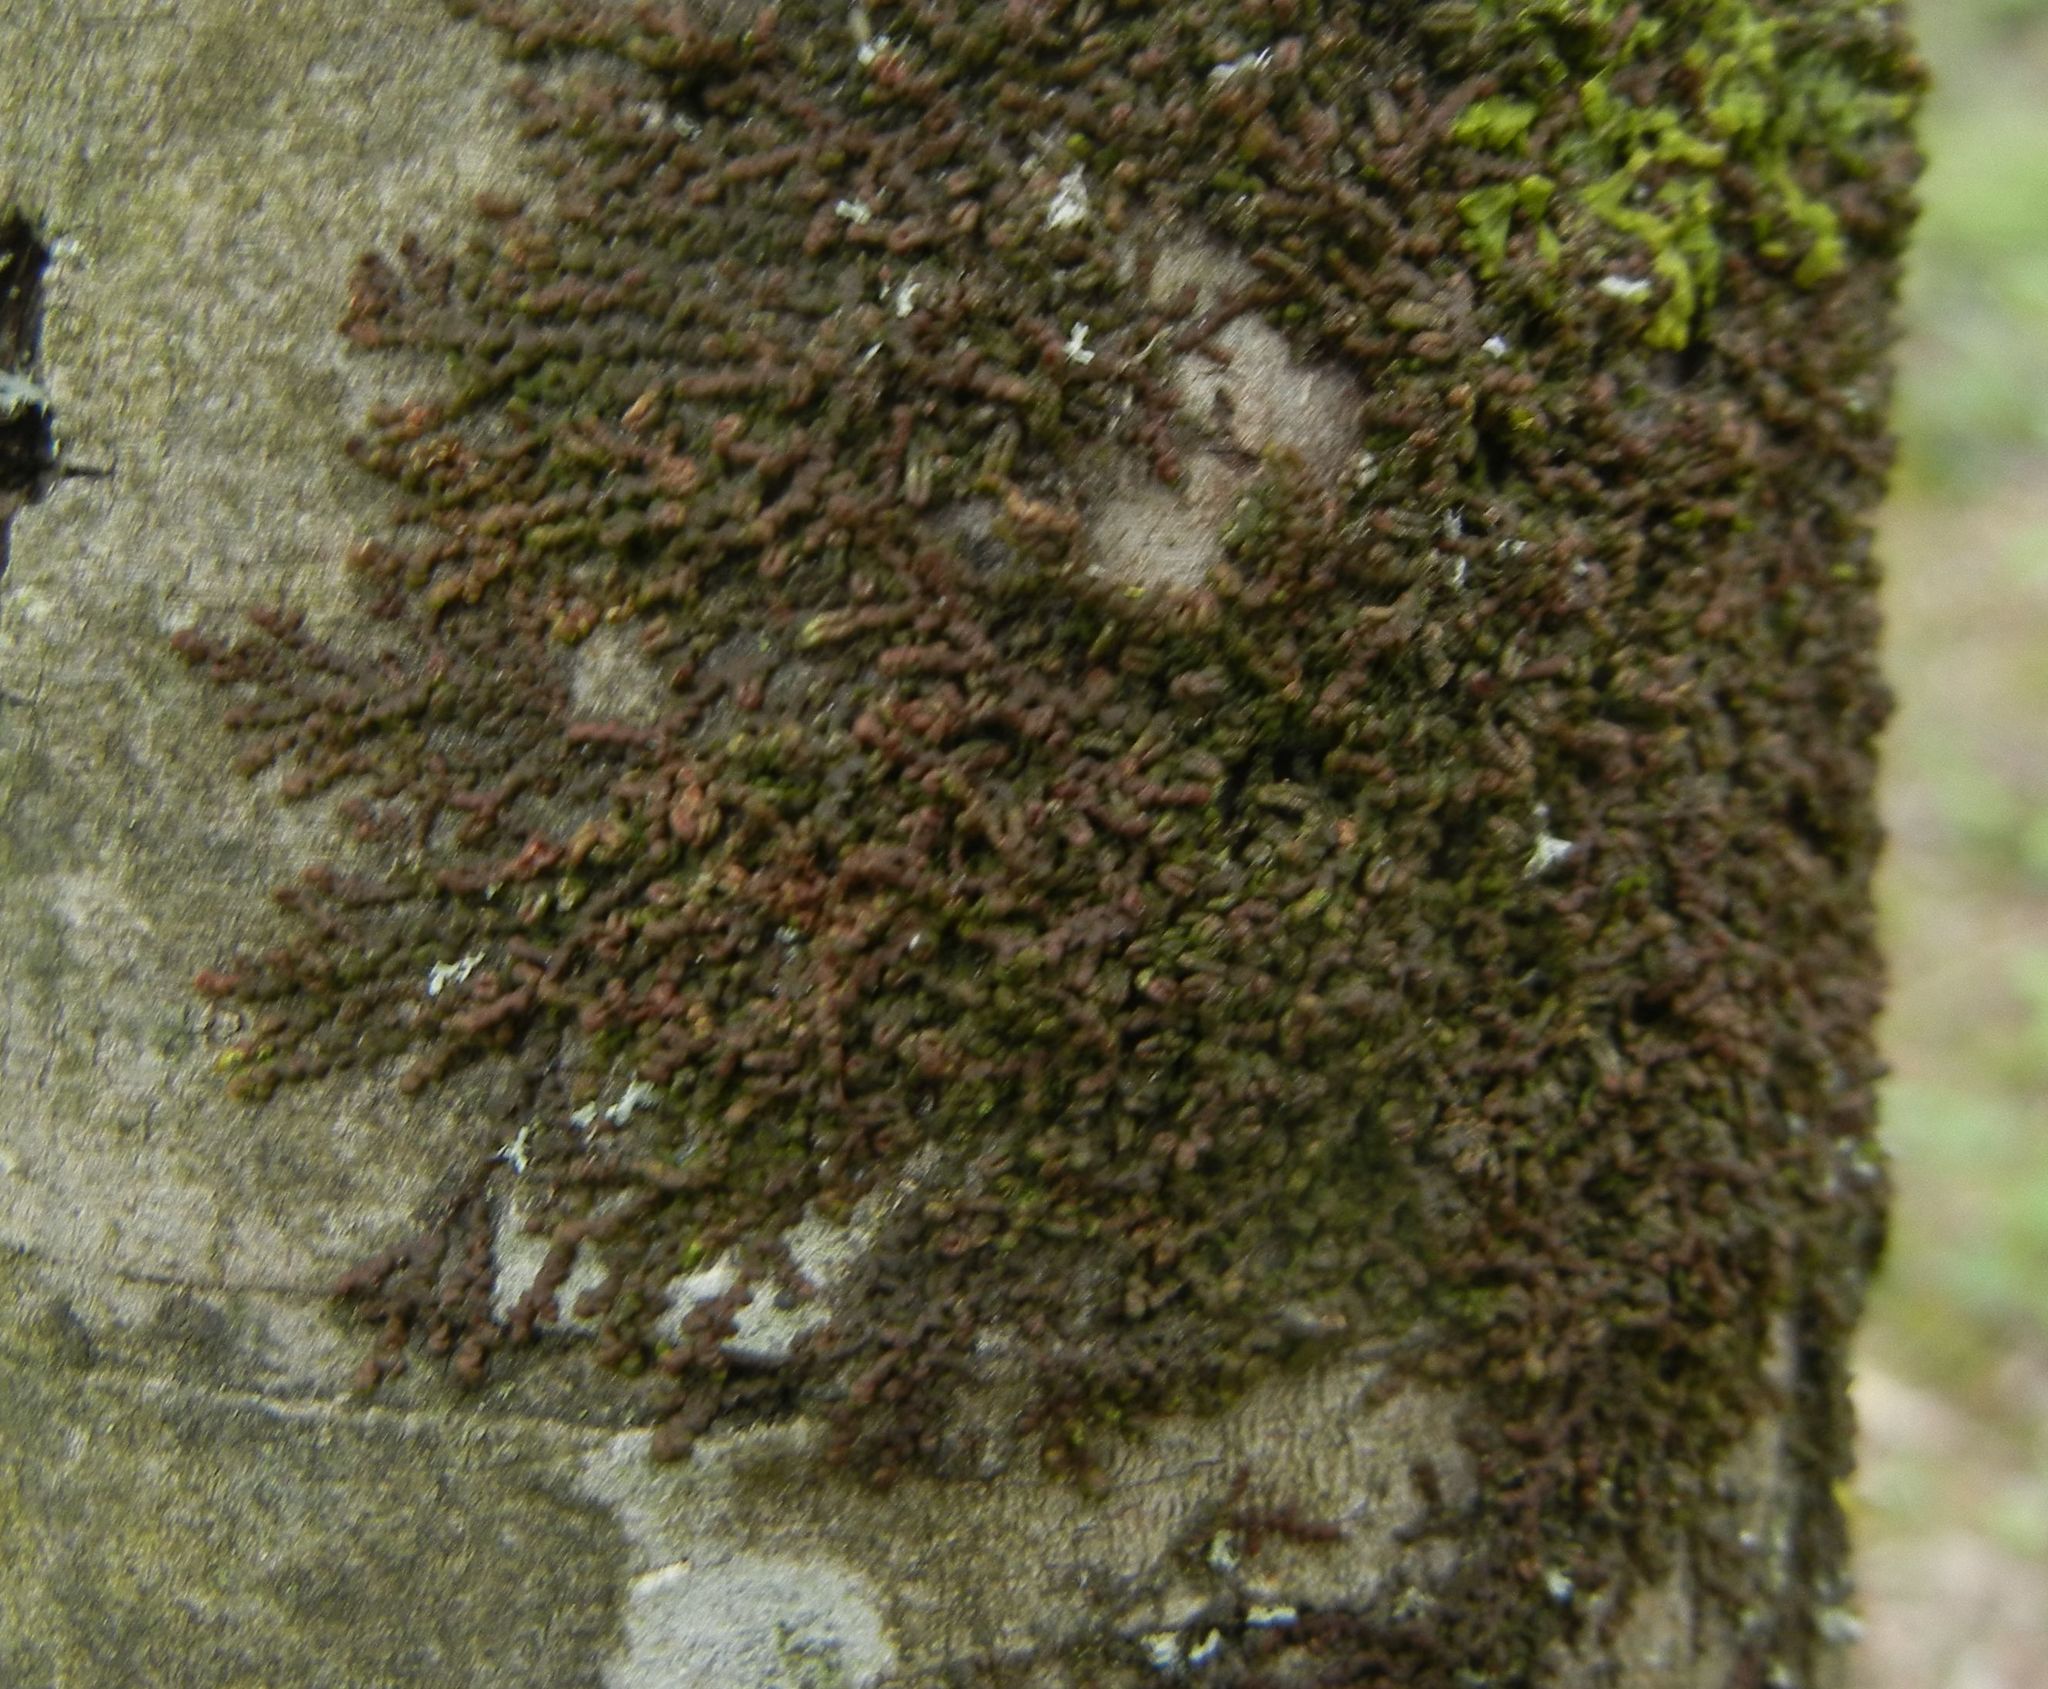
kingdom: Plantae
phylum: Marchantiophyta
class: Jungermanniopsida
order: Porellales
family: Frullaniaceae
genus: Frullania
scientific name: Frullania dilatata
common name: Dilated scalewort
